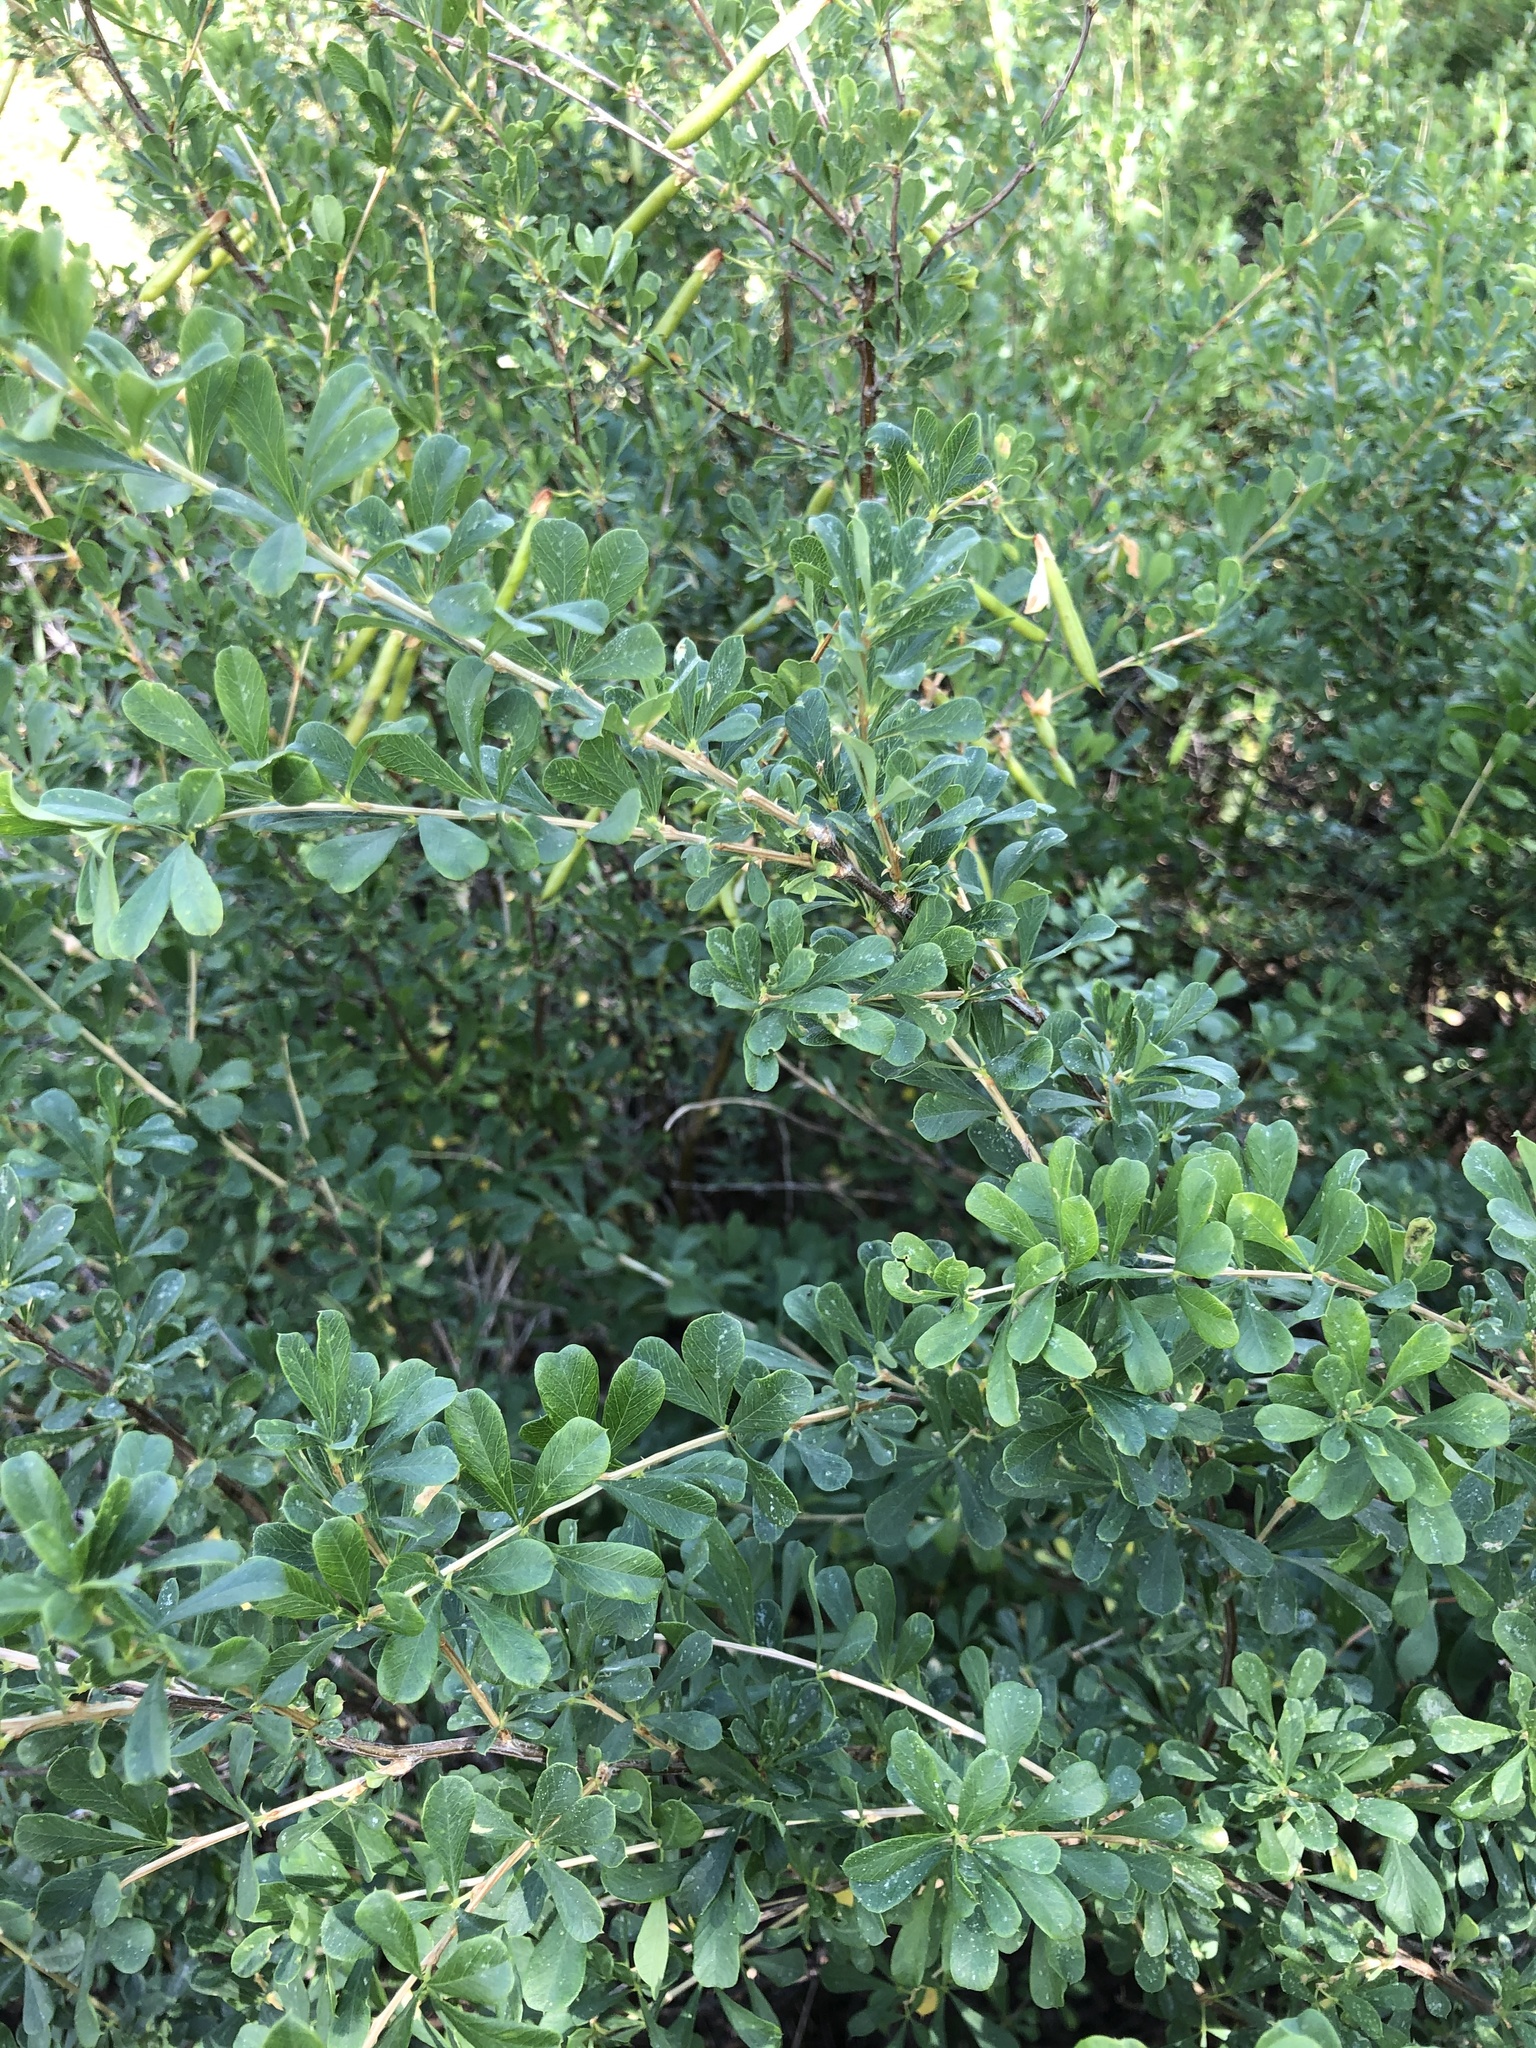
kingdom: Plantae
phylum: Tracheophyta
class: Magnoliopsida
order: Fabales
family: Fabaceae
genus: Caragana
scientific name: Caragana frutex
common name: Russian peashrub
